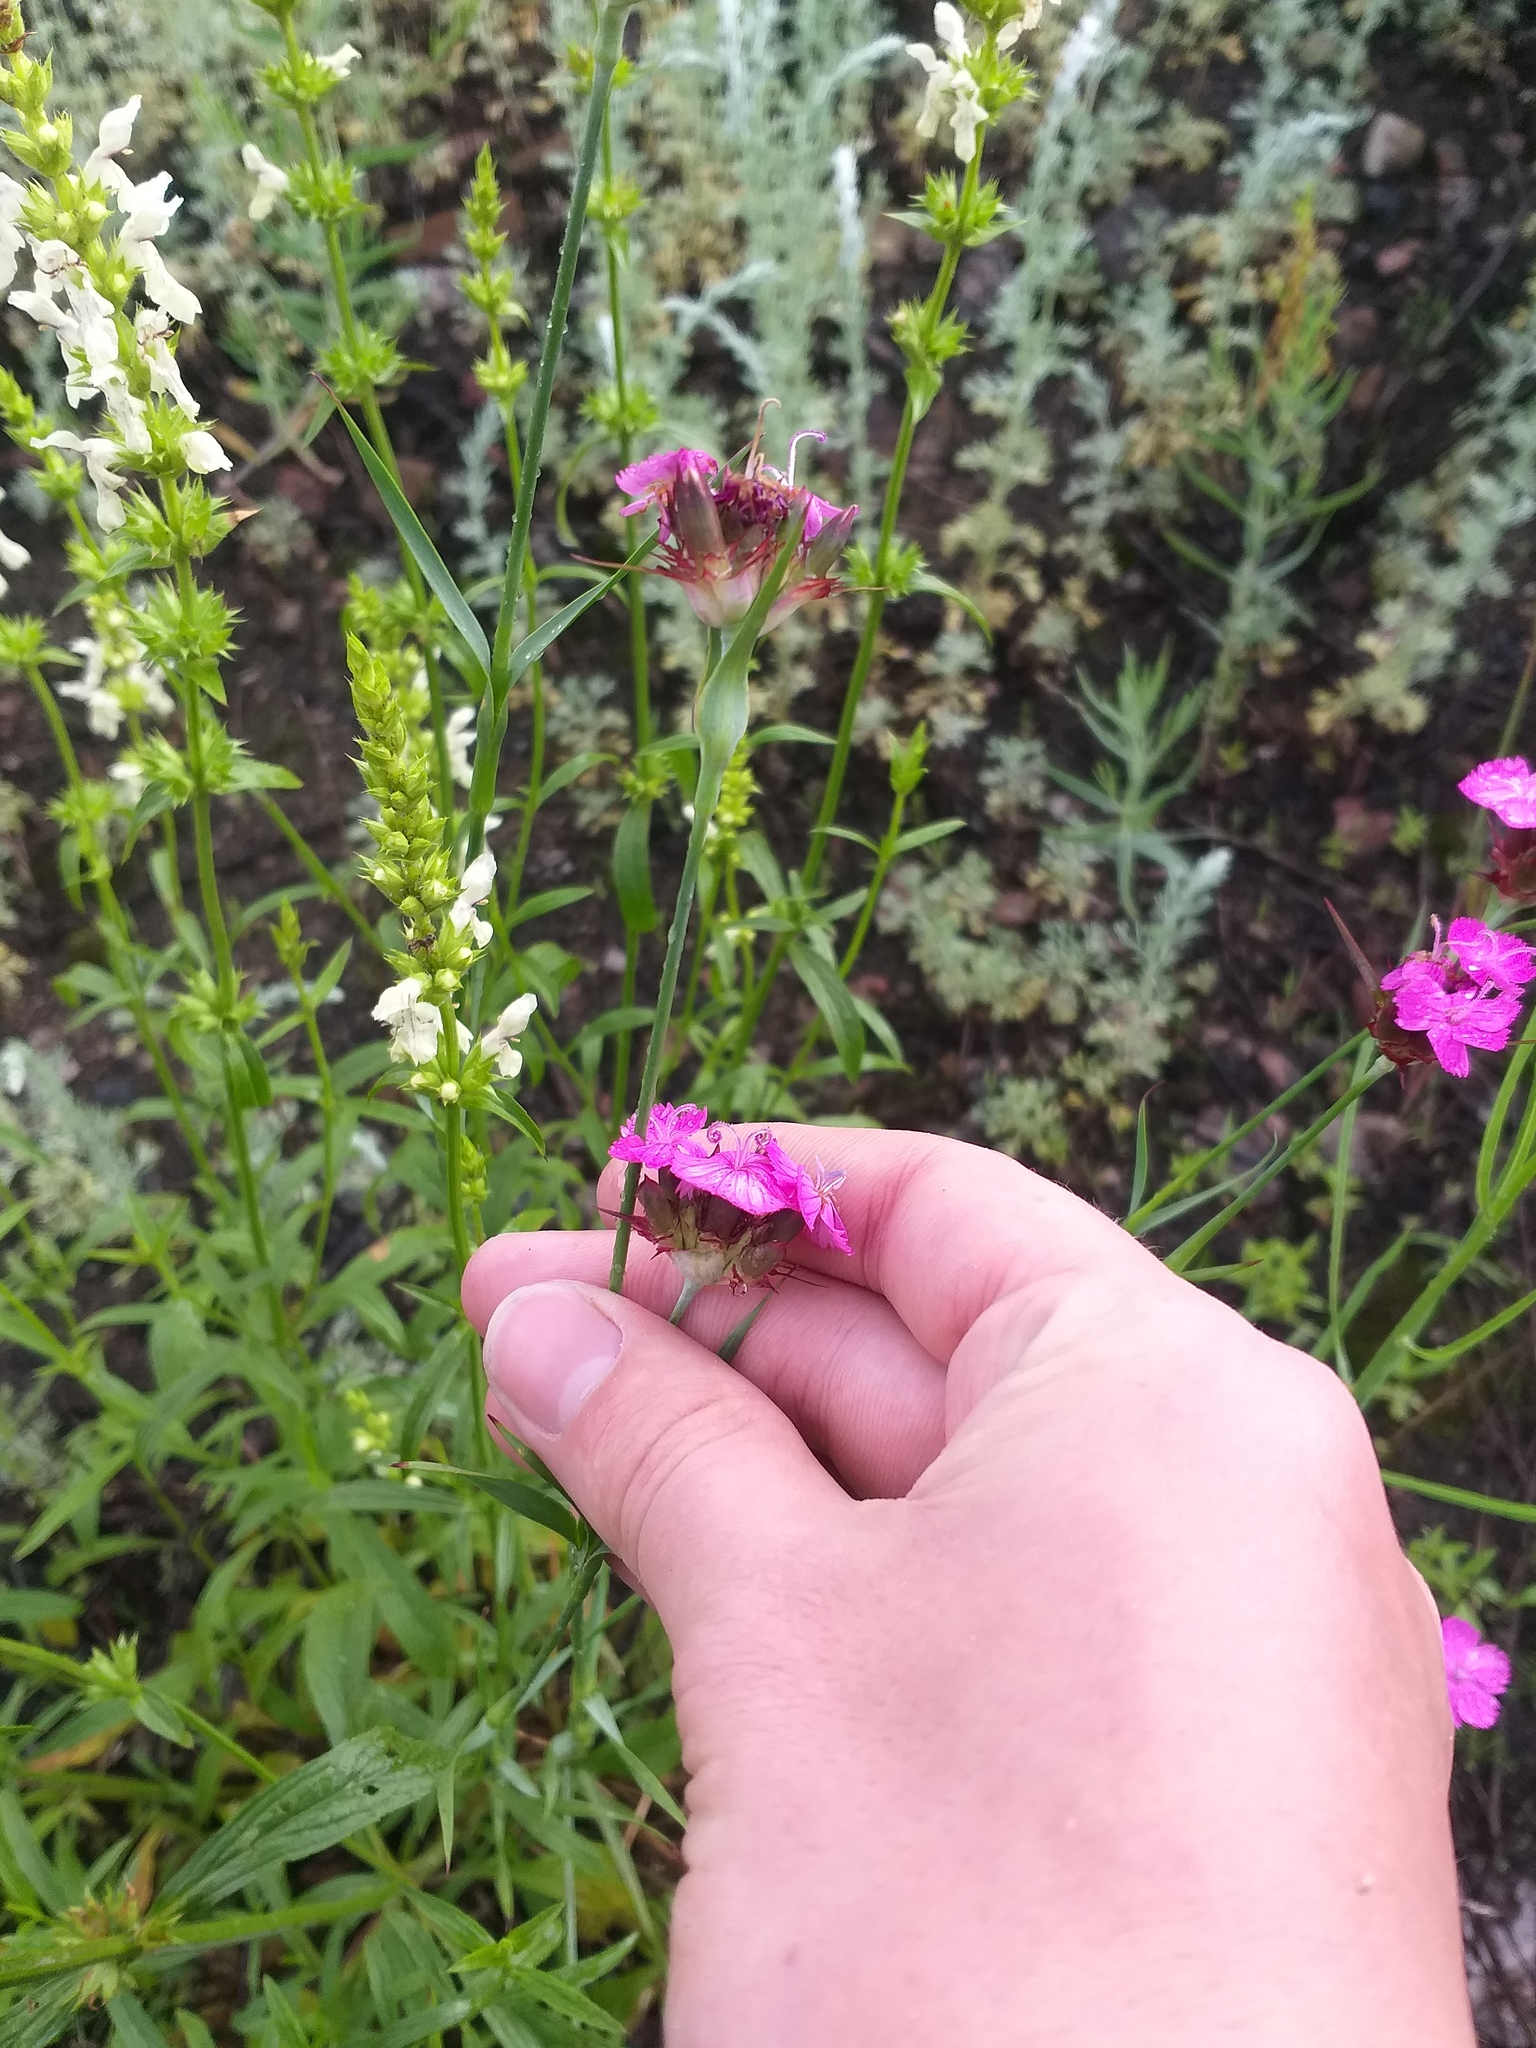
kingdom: Plantae
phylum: Tracheophyta
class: Magnoliopsida
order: Caryophyllales
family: Caryophyllaceae
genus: Dianthus
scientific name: Dianthus capitatus
